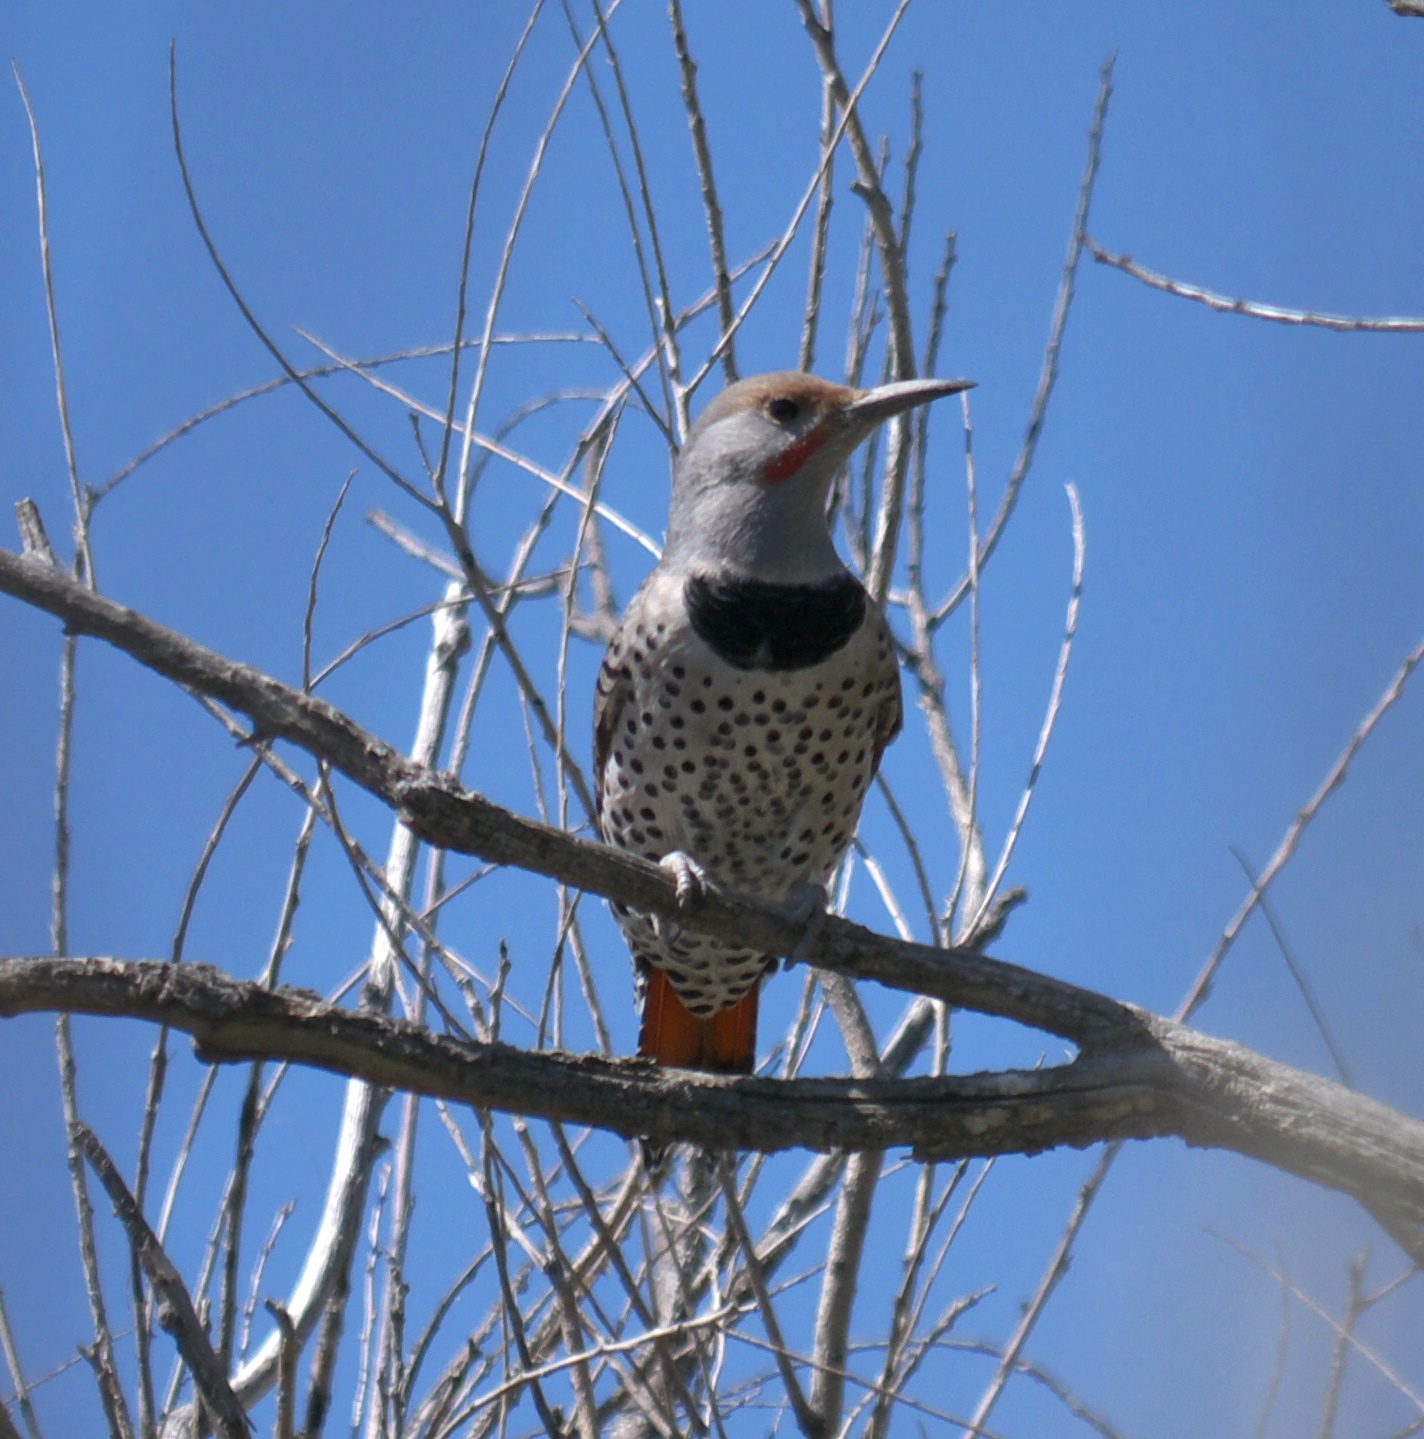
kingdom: Animalia
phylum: Chordata
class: Aves
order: Piciformes
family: Picidae
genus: Colaptes
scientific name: Colaptes auratus
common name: Northern flicker
